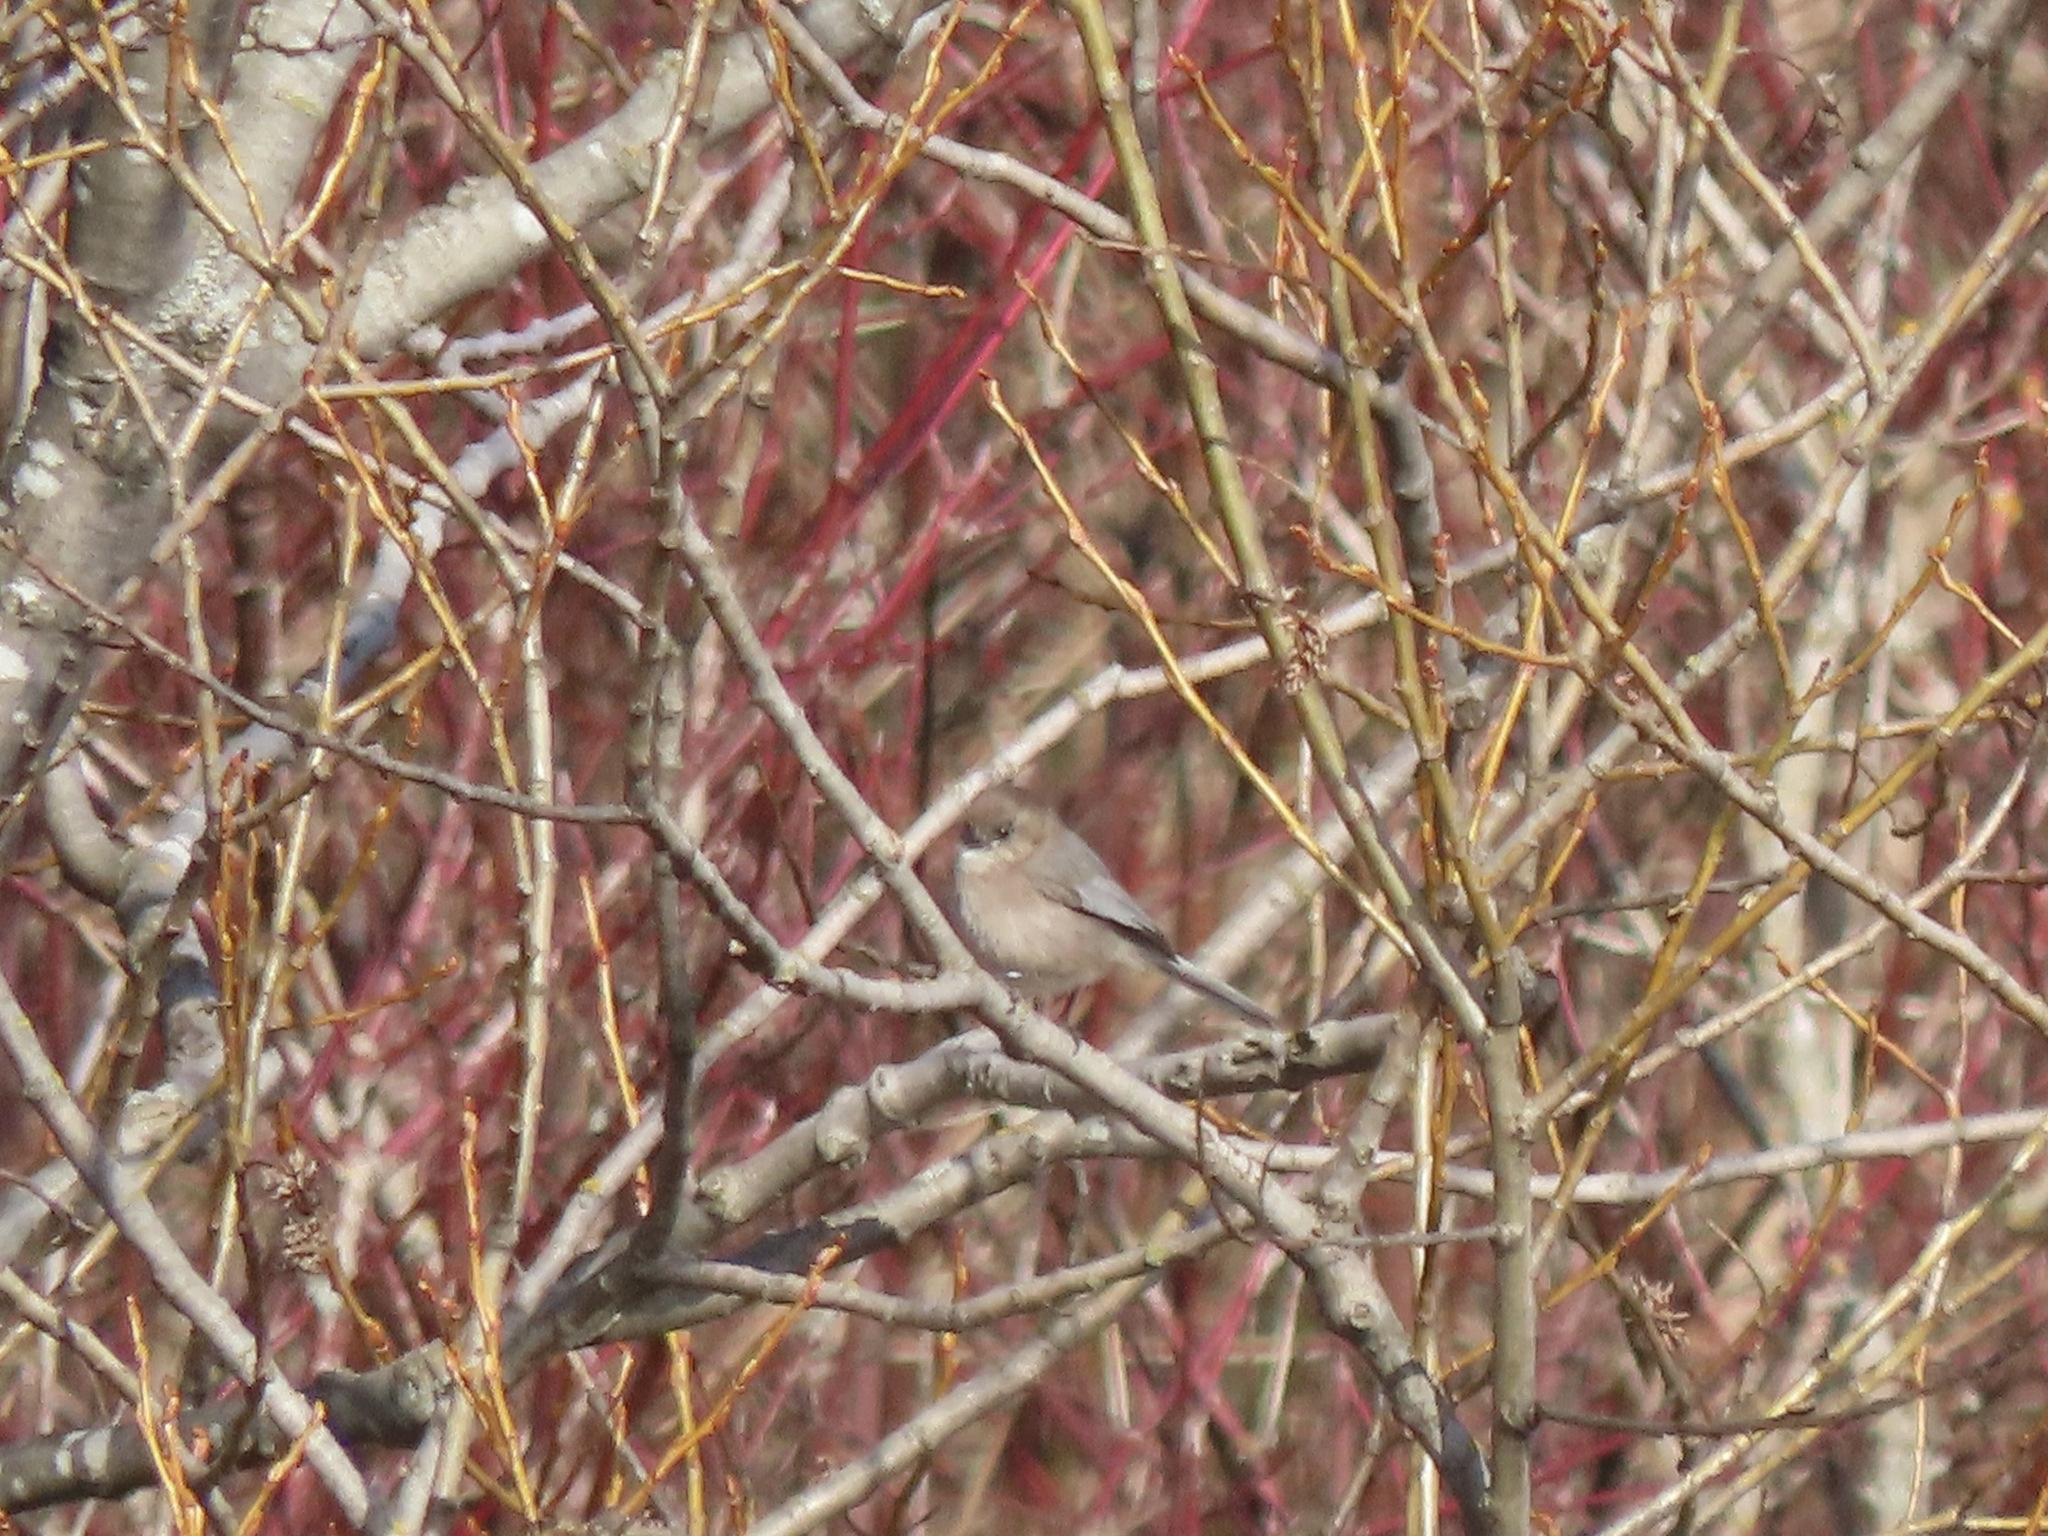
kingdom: Animalia
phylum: Chordata
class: Aves
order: Passeriformes
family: Aegithalidae
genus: Psaltriparus
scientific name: Psaltriparus minimus
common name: American bushtit
